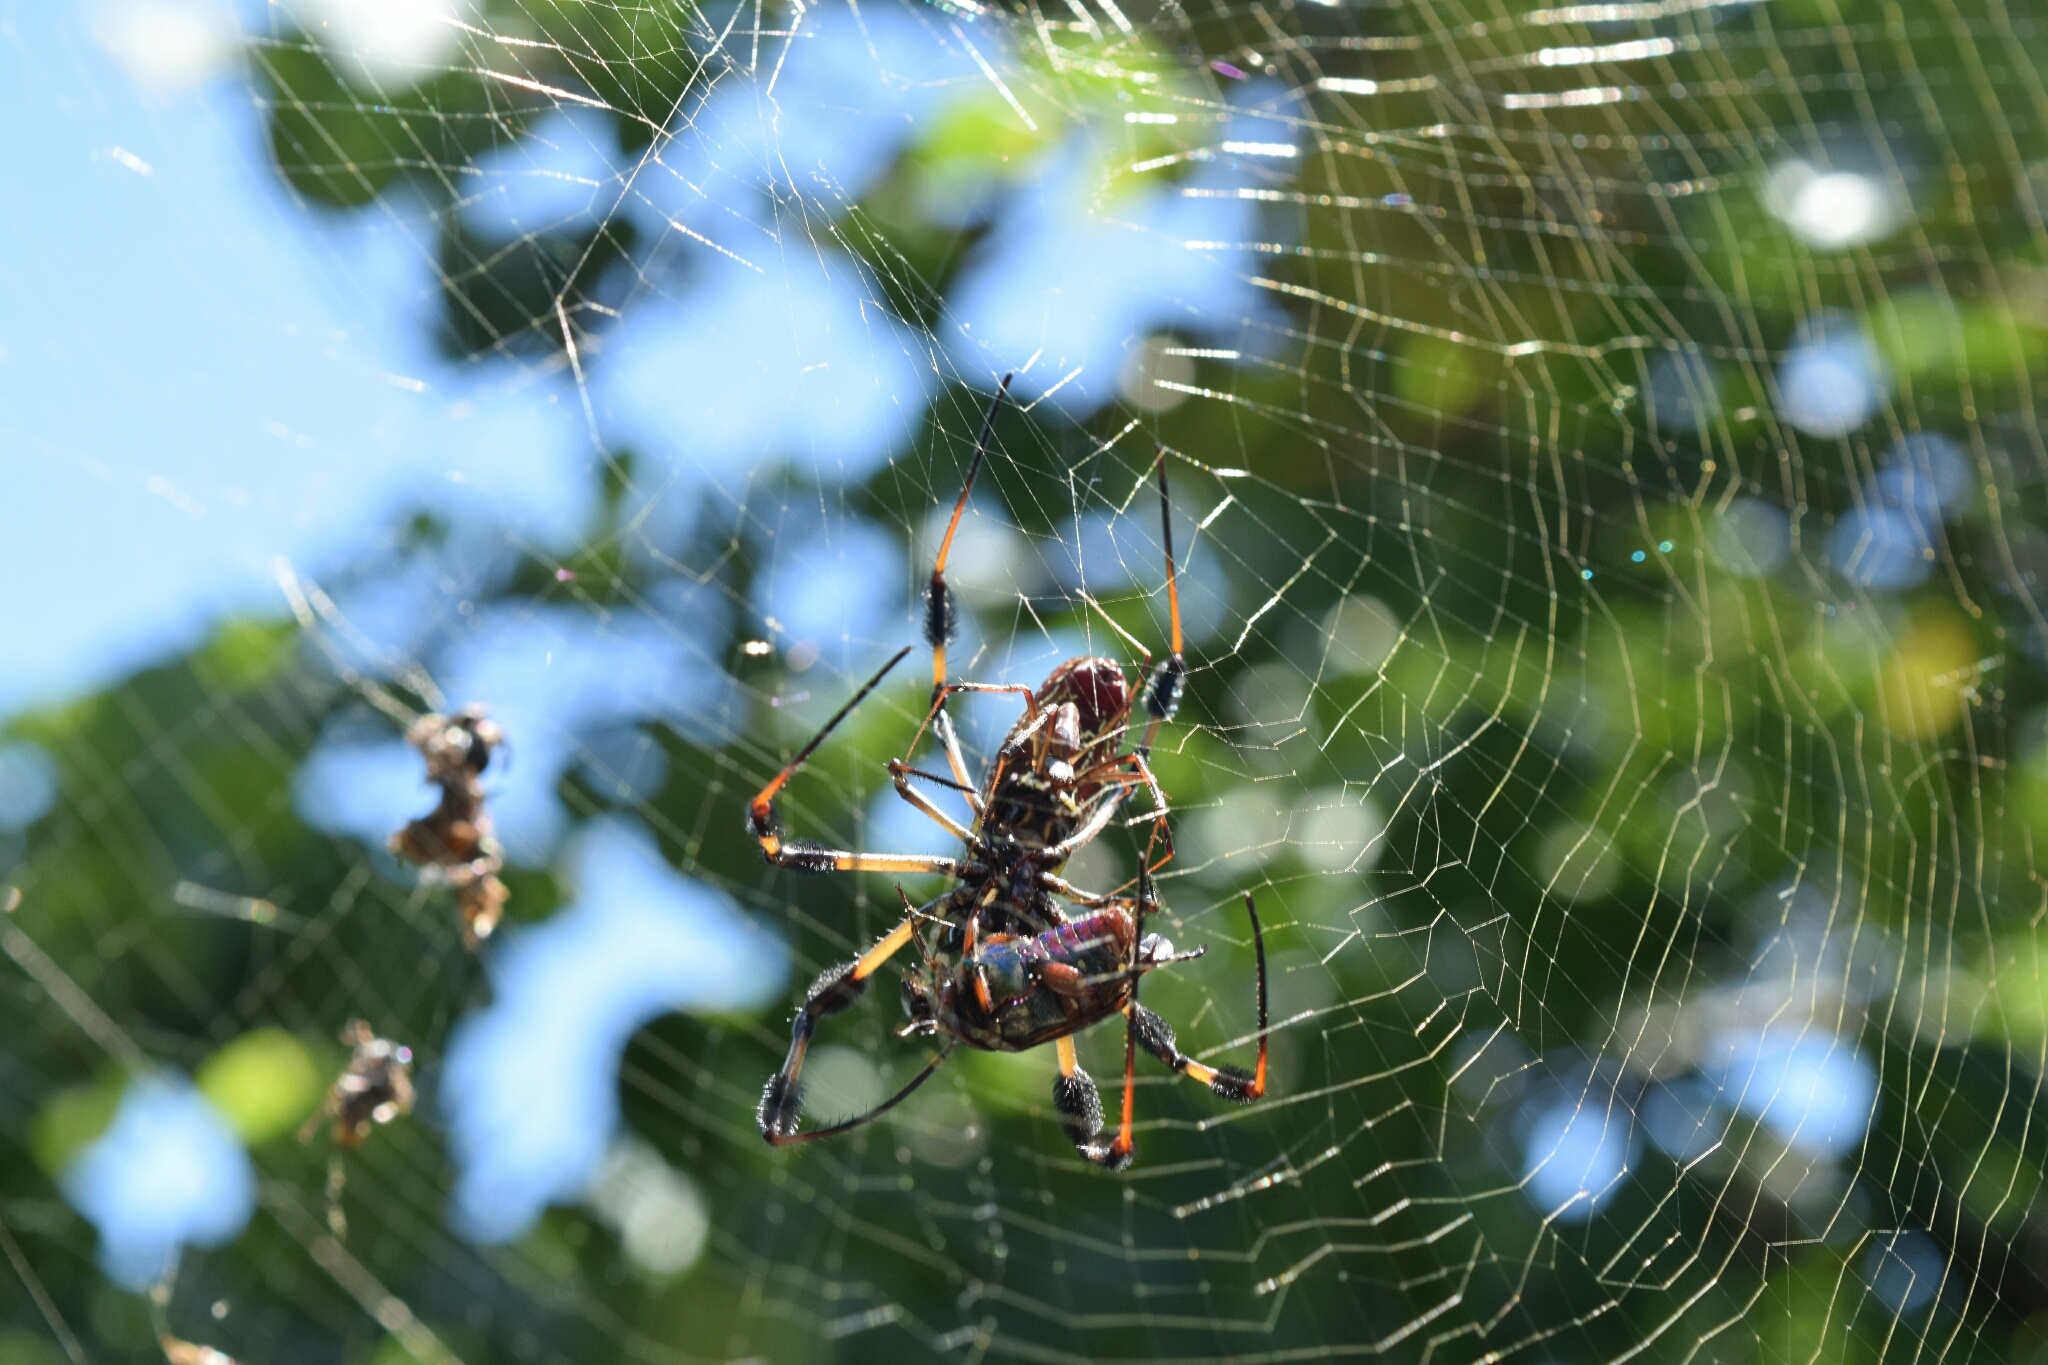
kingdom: Animalia
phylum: Arthropoda
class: Arachnida
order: Araneae
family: Araneidae
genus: Trichonephila
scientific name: Trichonephila clavipes
